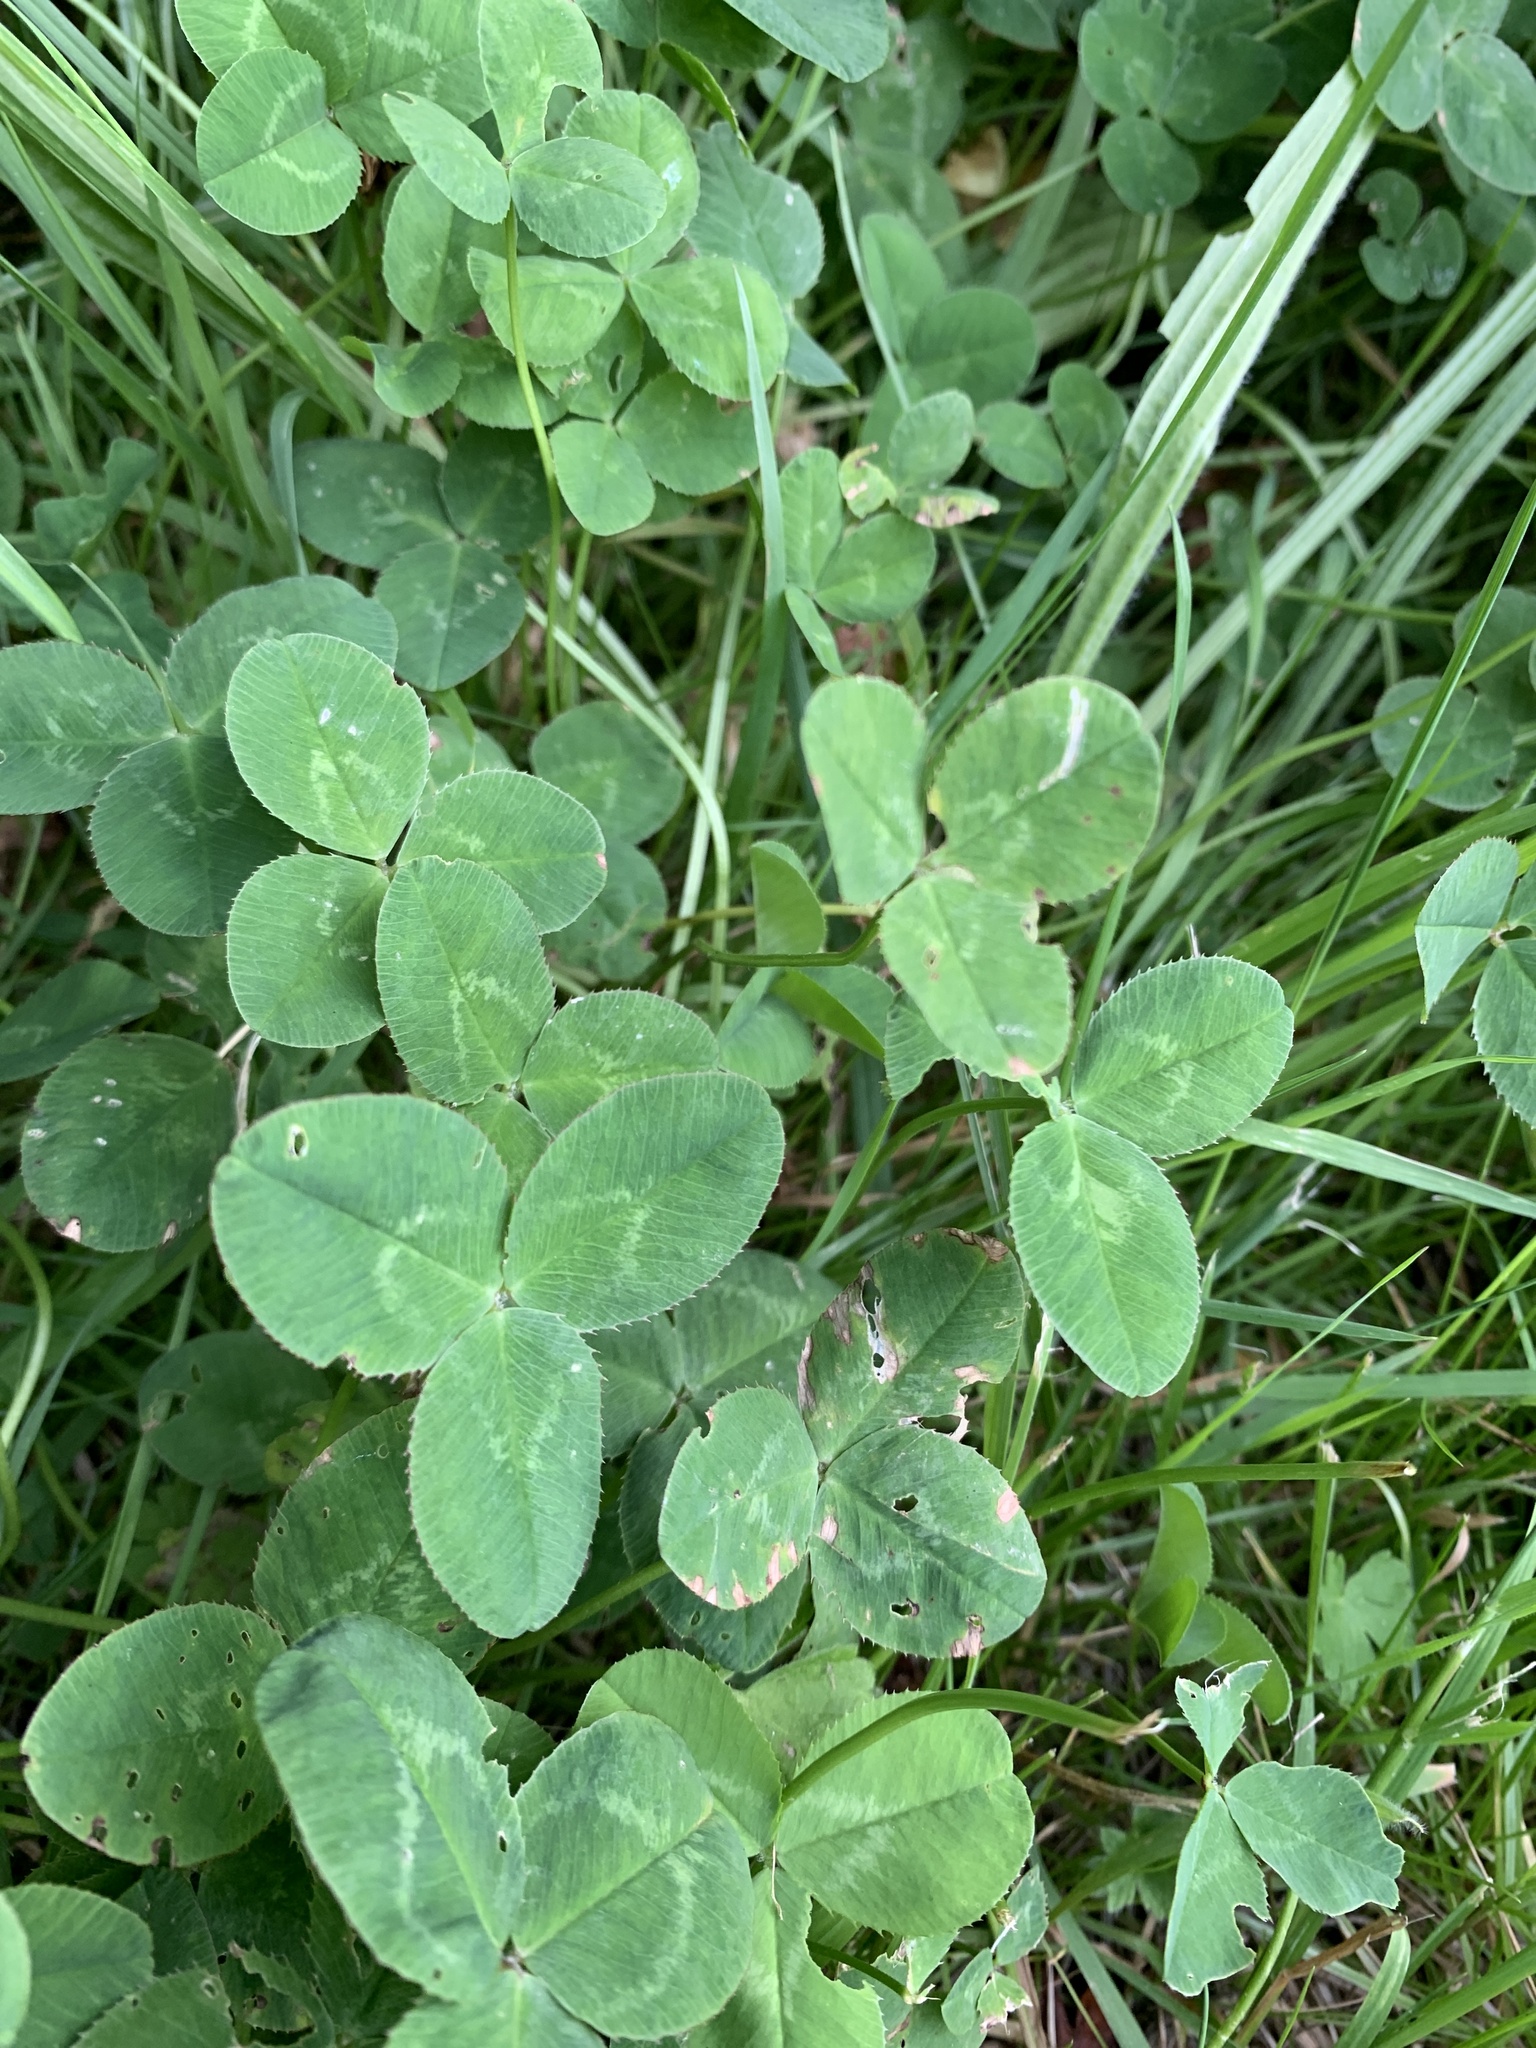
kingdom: Plantae
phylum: Tracheophyta
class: Magnoliopsida
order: Fabales
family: Fabaceae
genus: Trifolium
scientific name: Trifolium pratense
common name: Red clover
